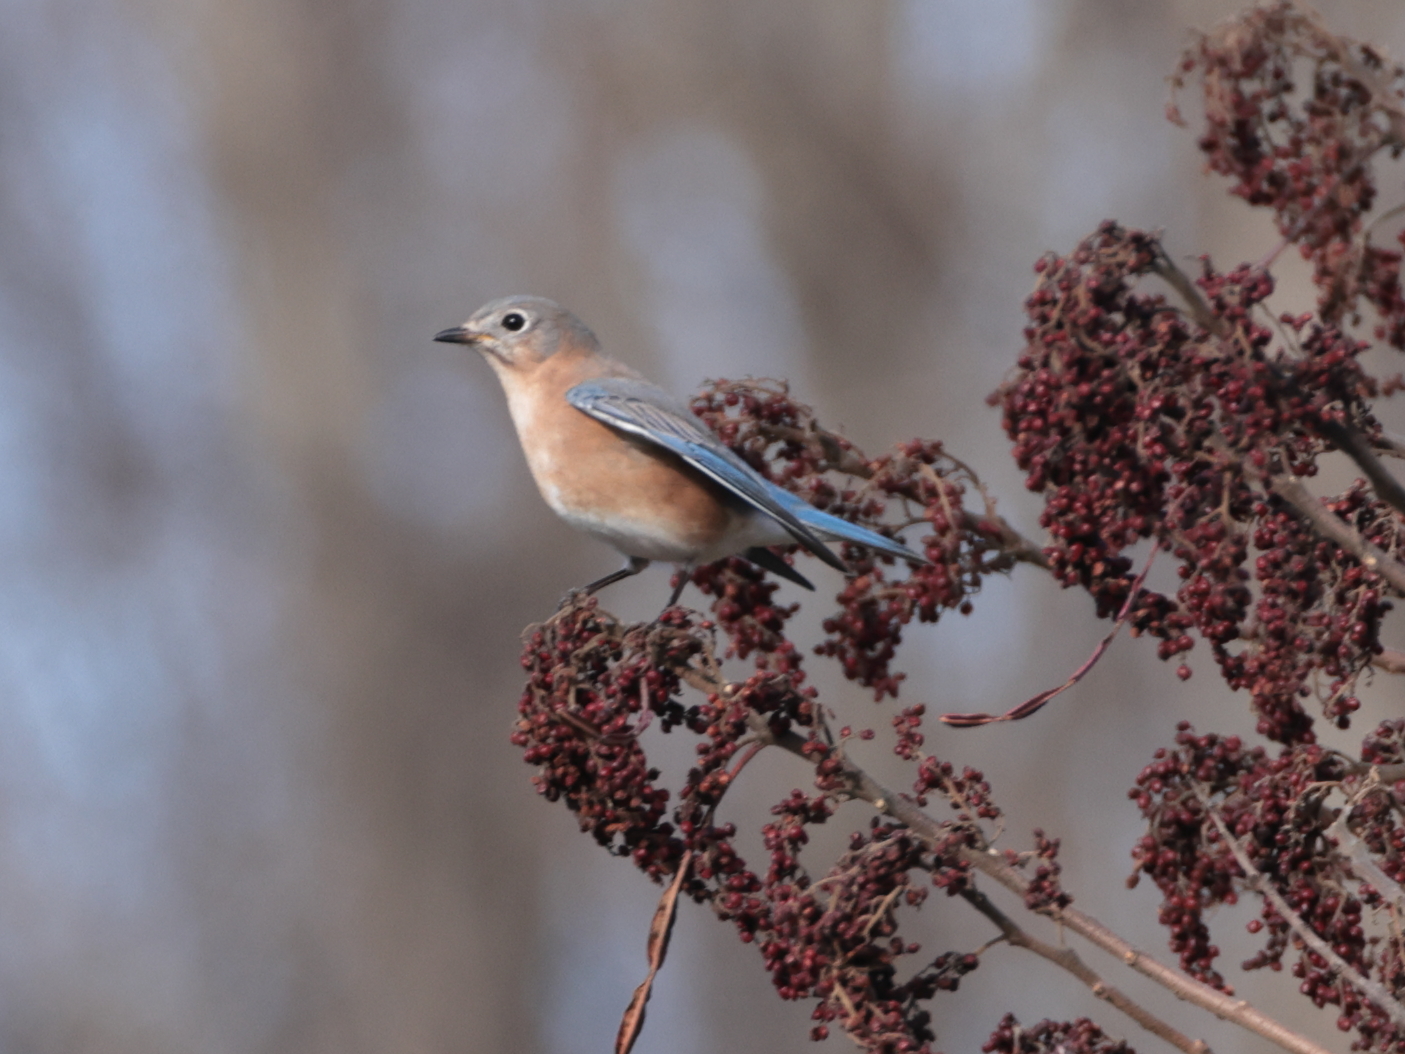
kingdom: Animalia
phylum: Chordata
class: Aves
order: Passeriformes
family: Turdidae
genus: Sialia
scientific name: Sialia sialis
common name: Eastern bluebird
